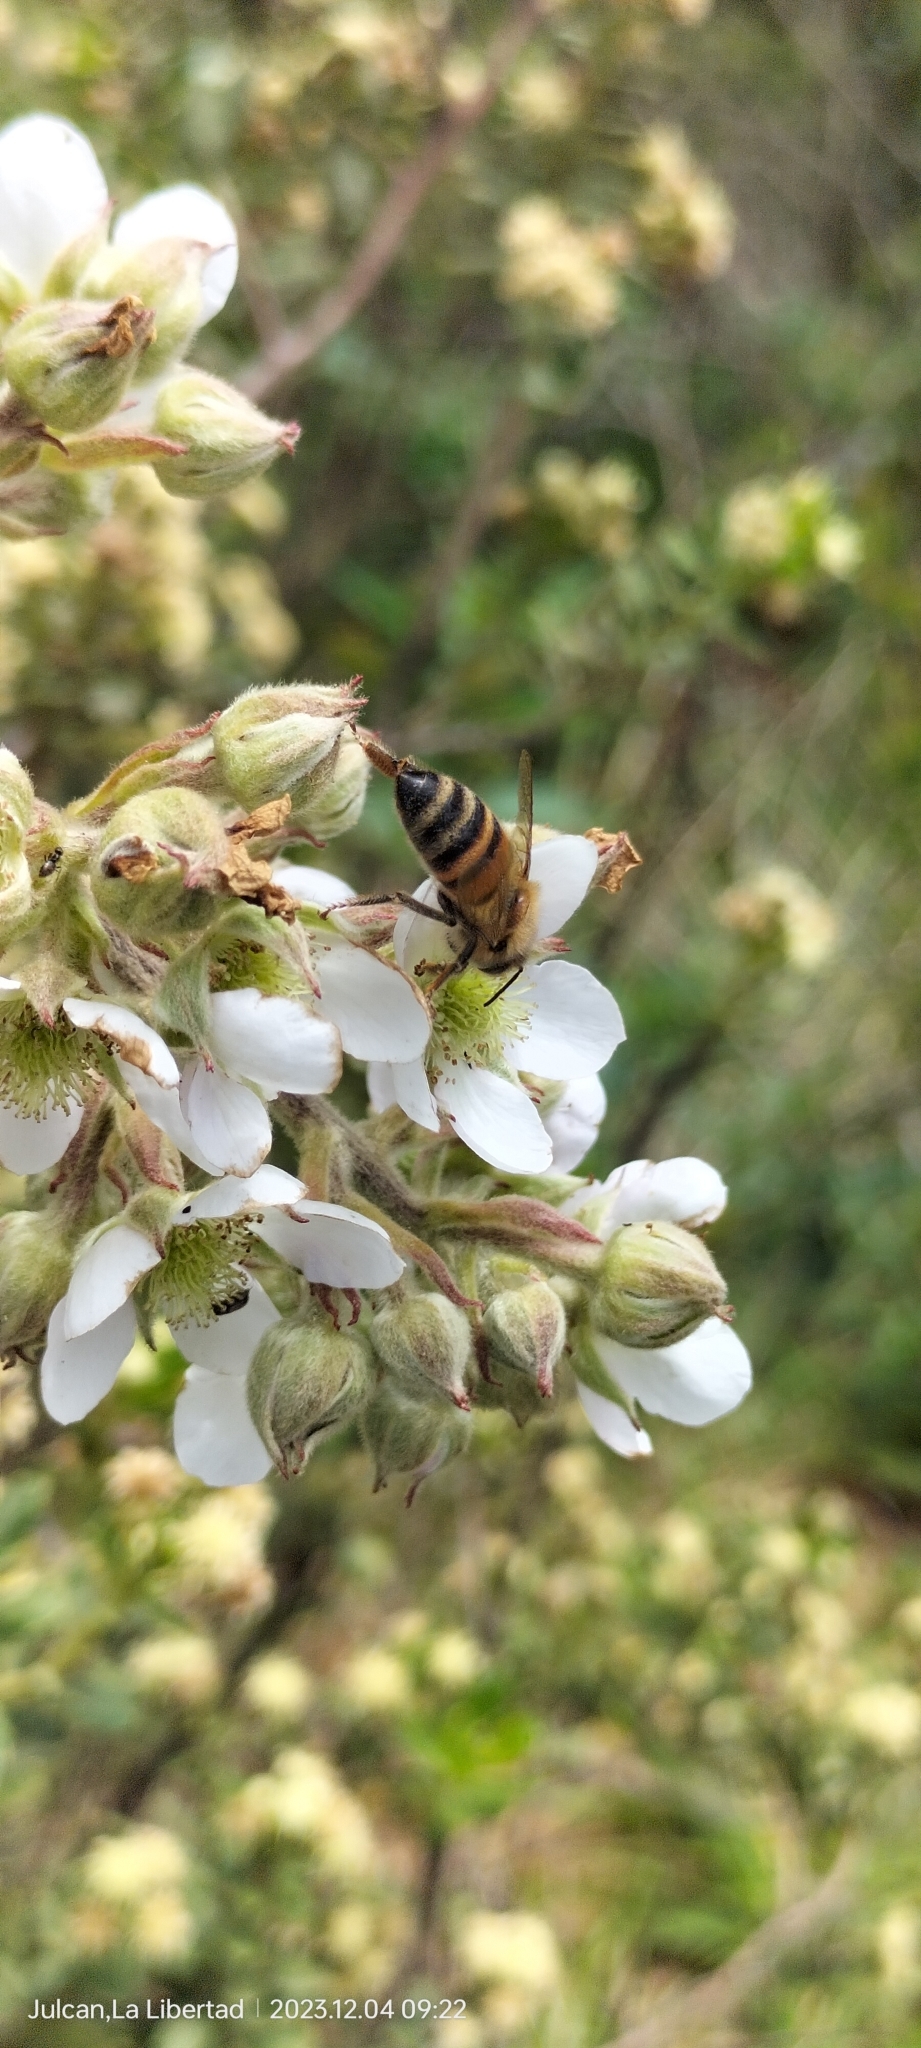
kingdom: Animalia
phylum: Arthropoda
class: Insecta
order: Hymenoptera
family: Apidae
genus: Apis
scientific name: Apis mellifera
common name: Honey bee
